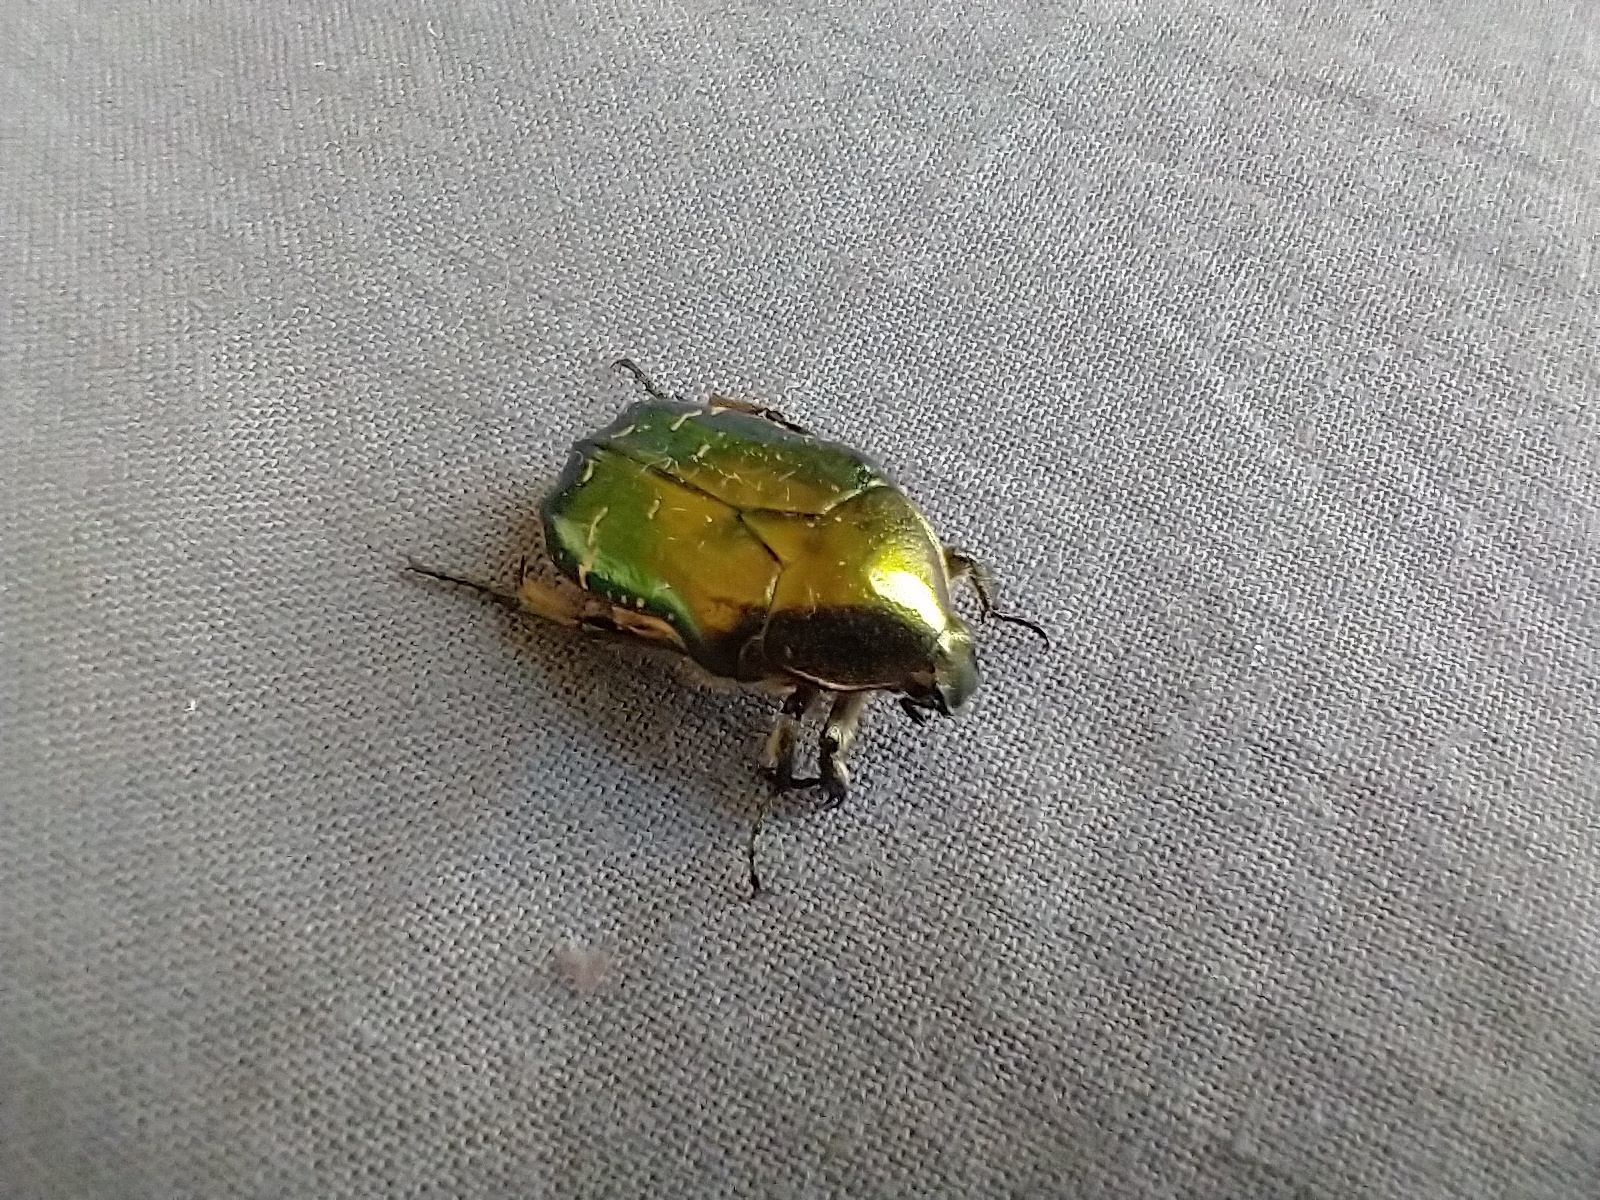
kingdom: Animalia
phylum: Arthropoda
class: Insecta
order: Coleoptera
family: Scarabaeidae
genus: Cetonia
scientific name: Cetonia aurata
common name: Rose chafer
